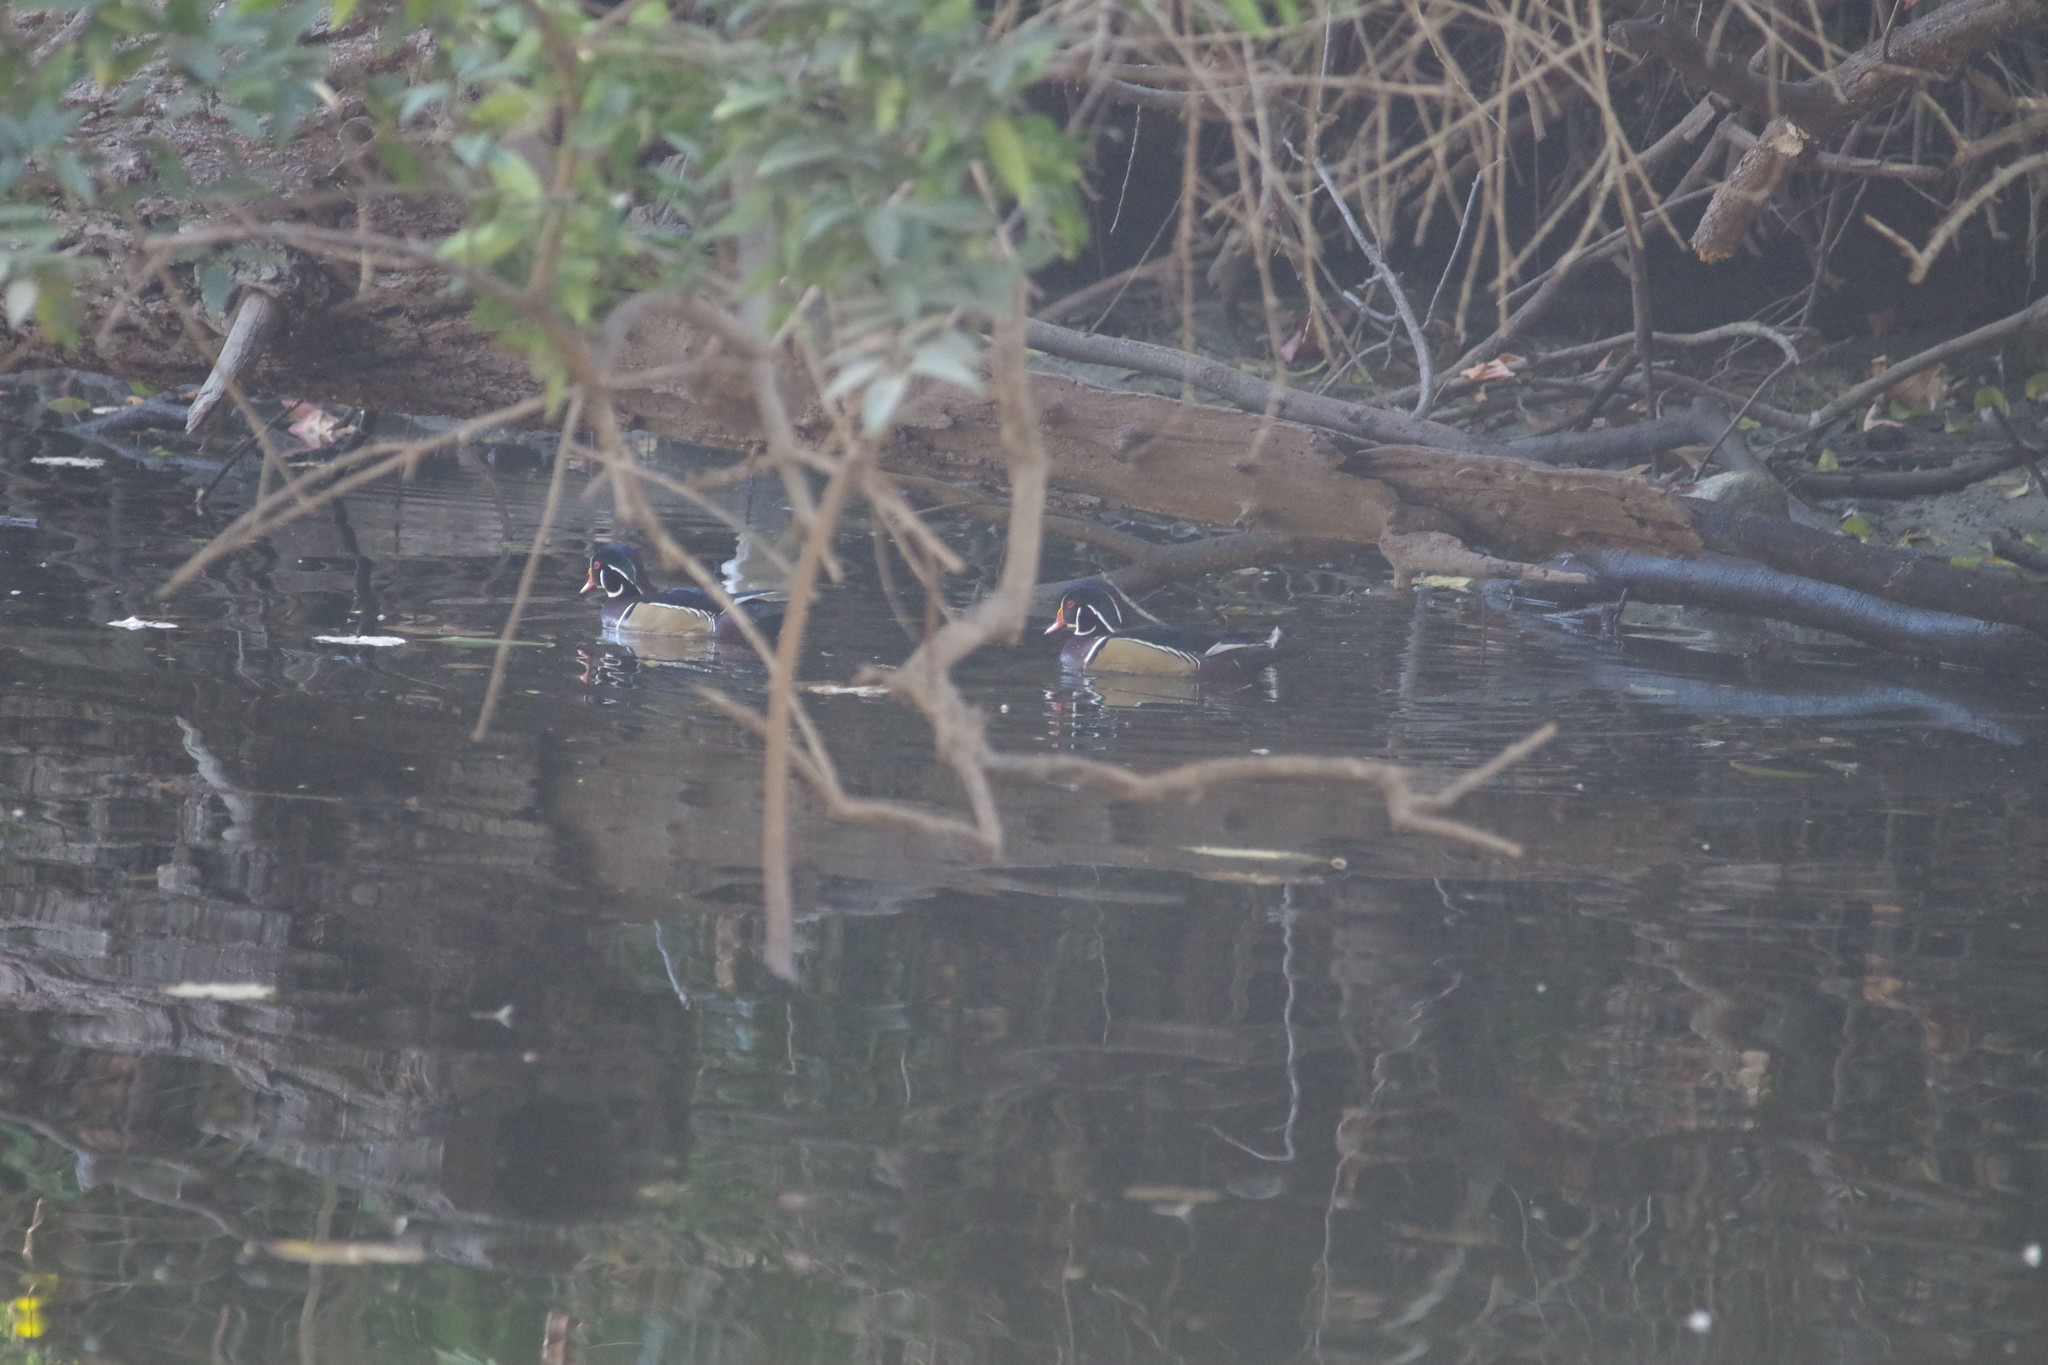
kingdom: Animalia
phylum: Chordata
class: Aves
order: Anseriformes
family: Anatidae
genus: Aix
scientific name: Aix sponsa
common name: Wood duck
